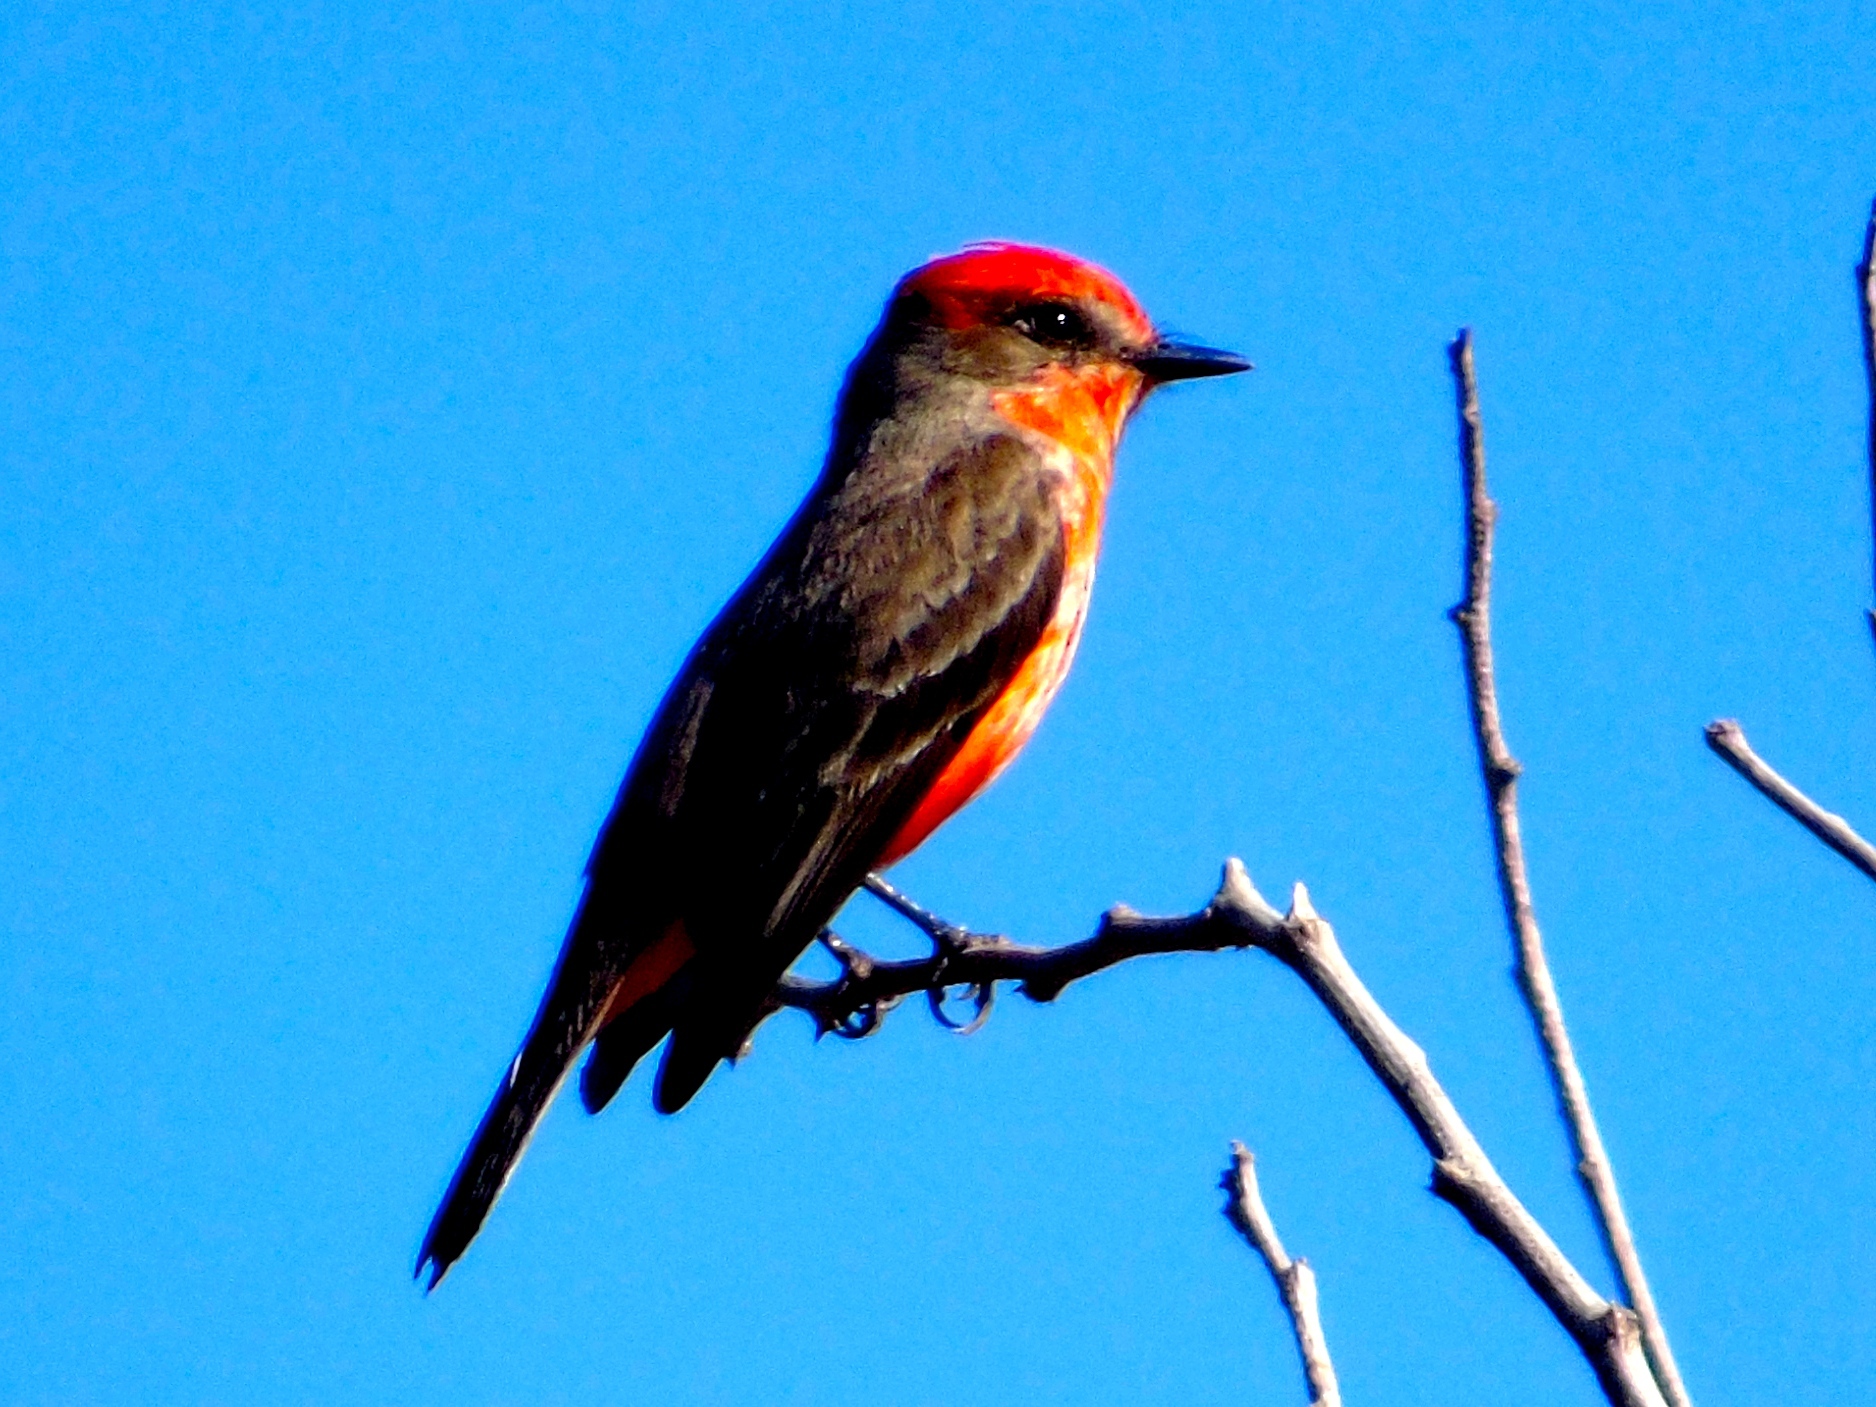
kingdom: Animalia
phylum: Chordata
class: Aves
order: Passeriformes
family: Tyrannidae
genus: Pyrocephalus
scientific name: Pyrocephalus rubinus
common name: Vermilion flycatcher
